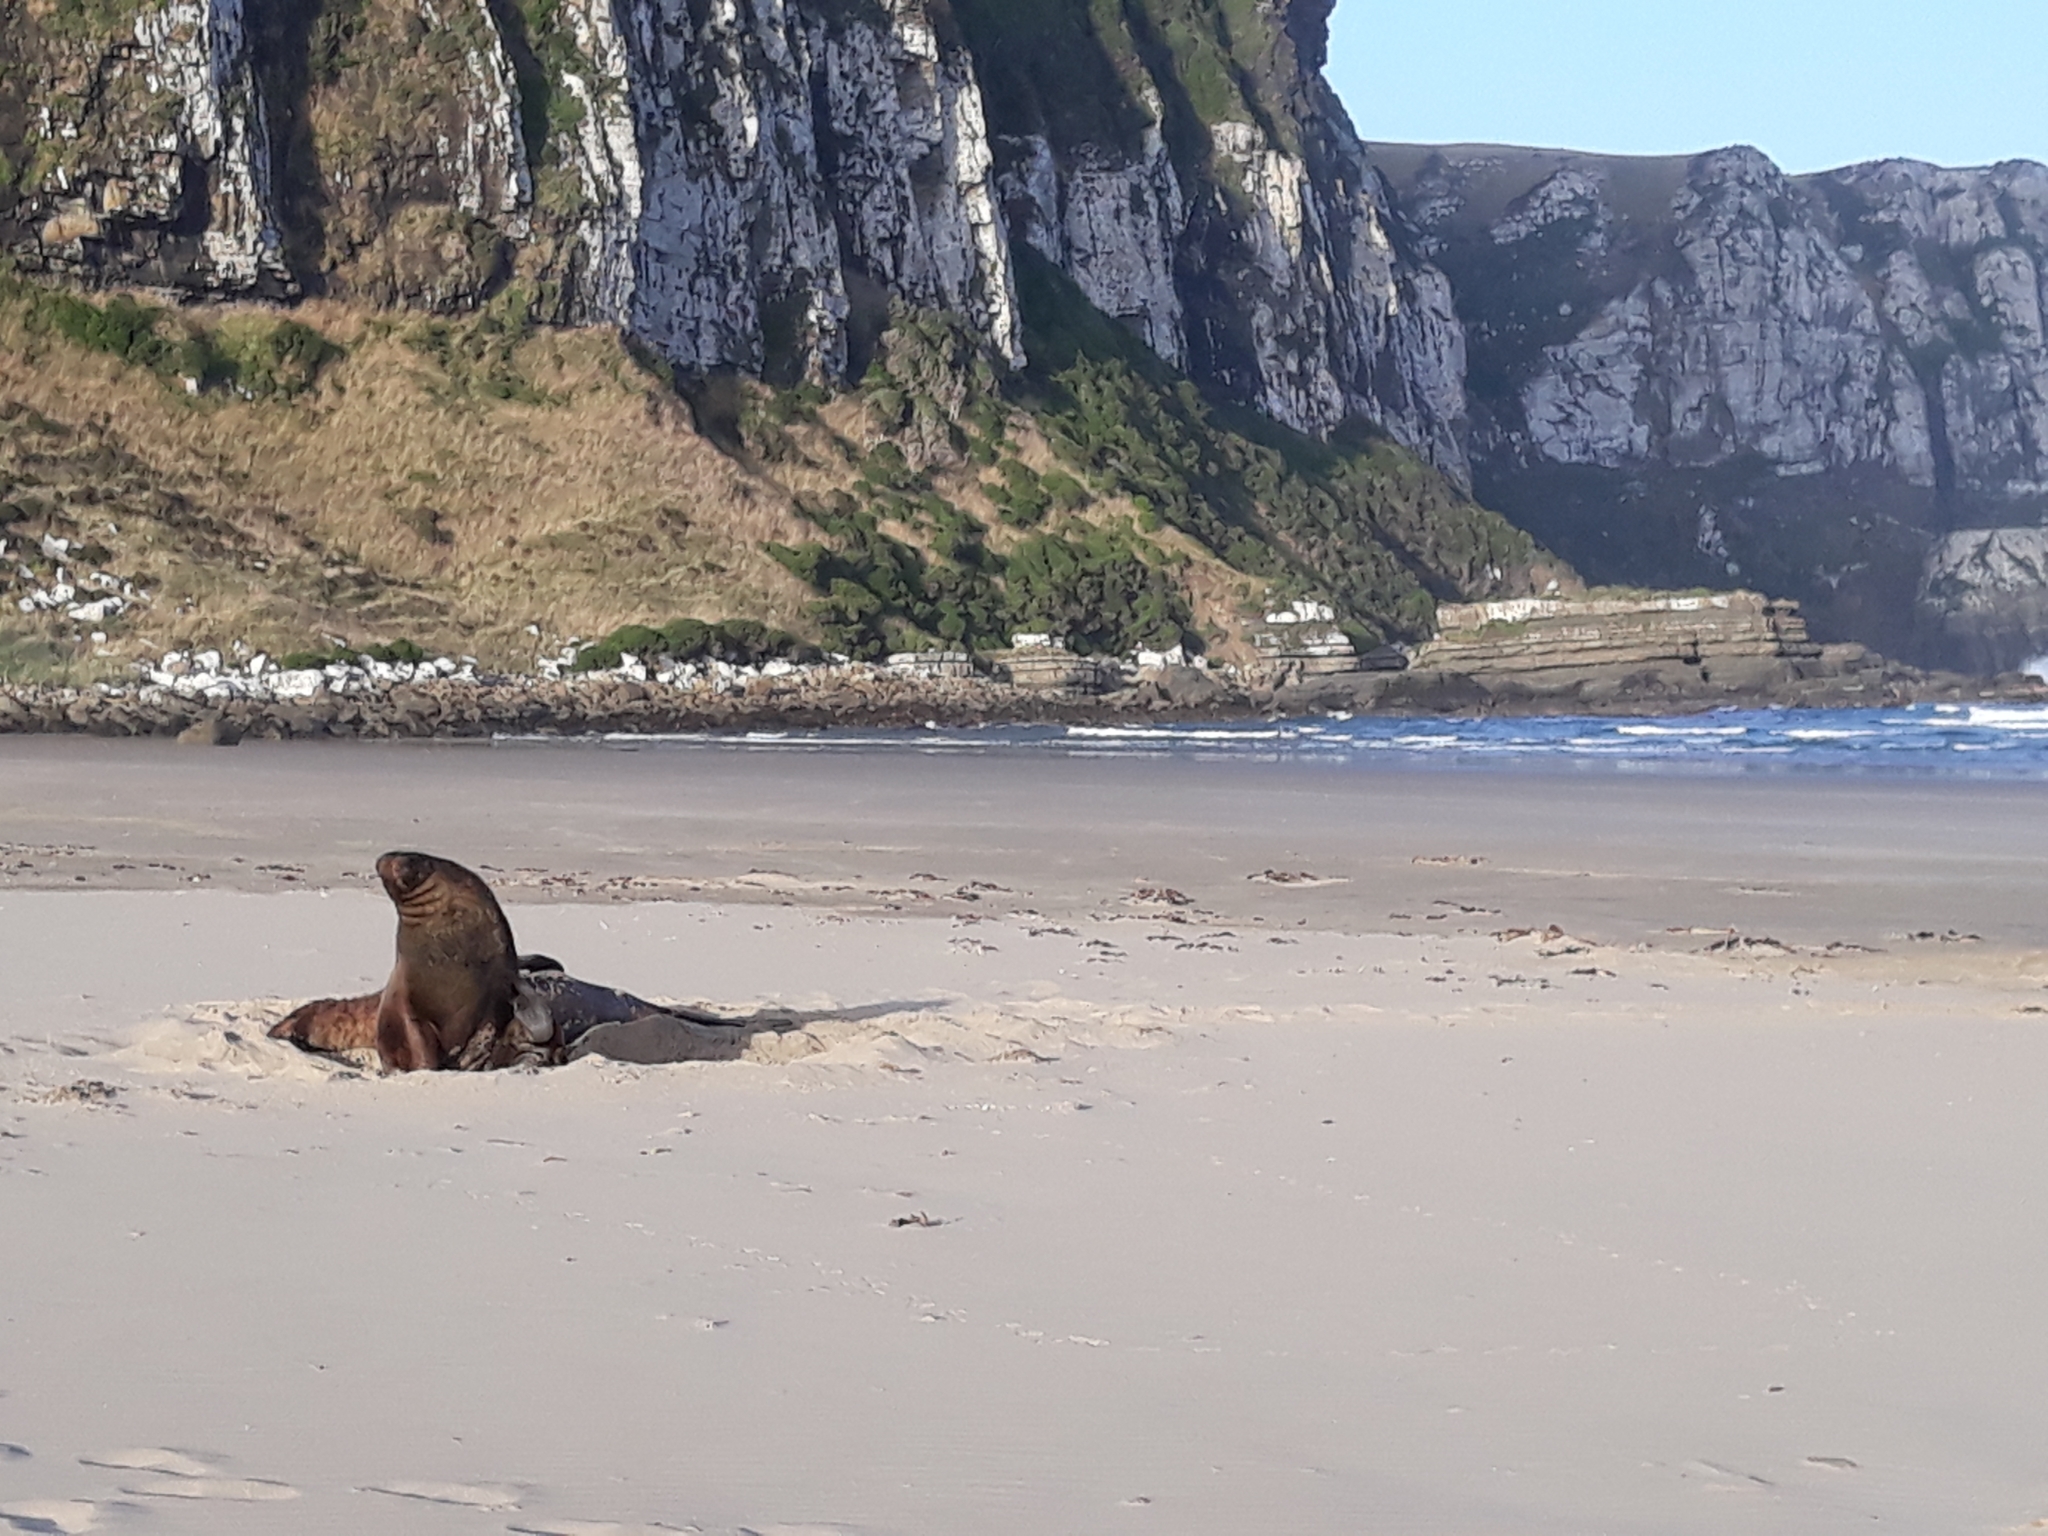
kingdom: Animalia
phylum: Chordata
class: Mammalia
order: Carnivora
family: Otariidae
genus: Phocarctos
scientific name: Phocarctos hookeri
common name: New zealand sea lion
